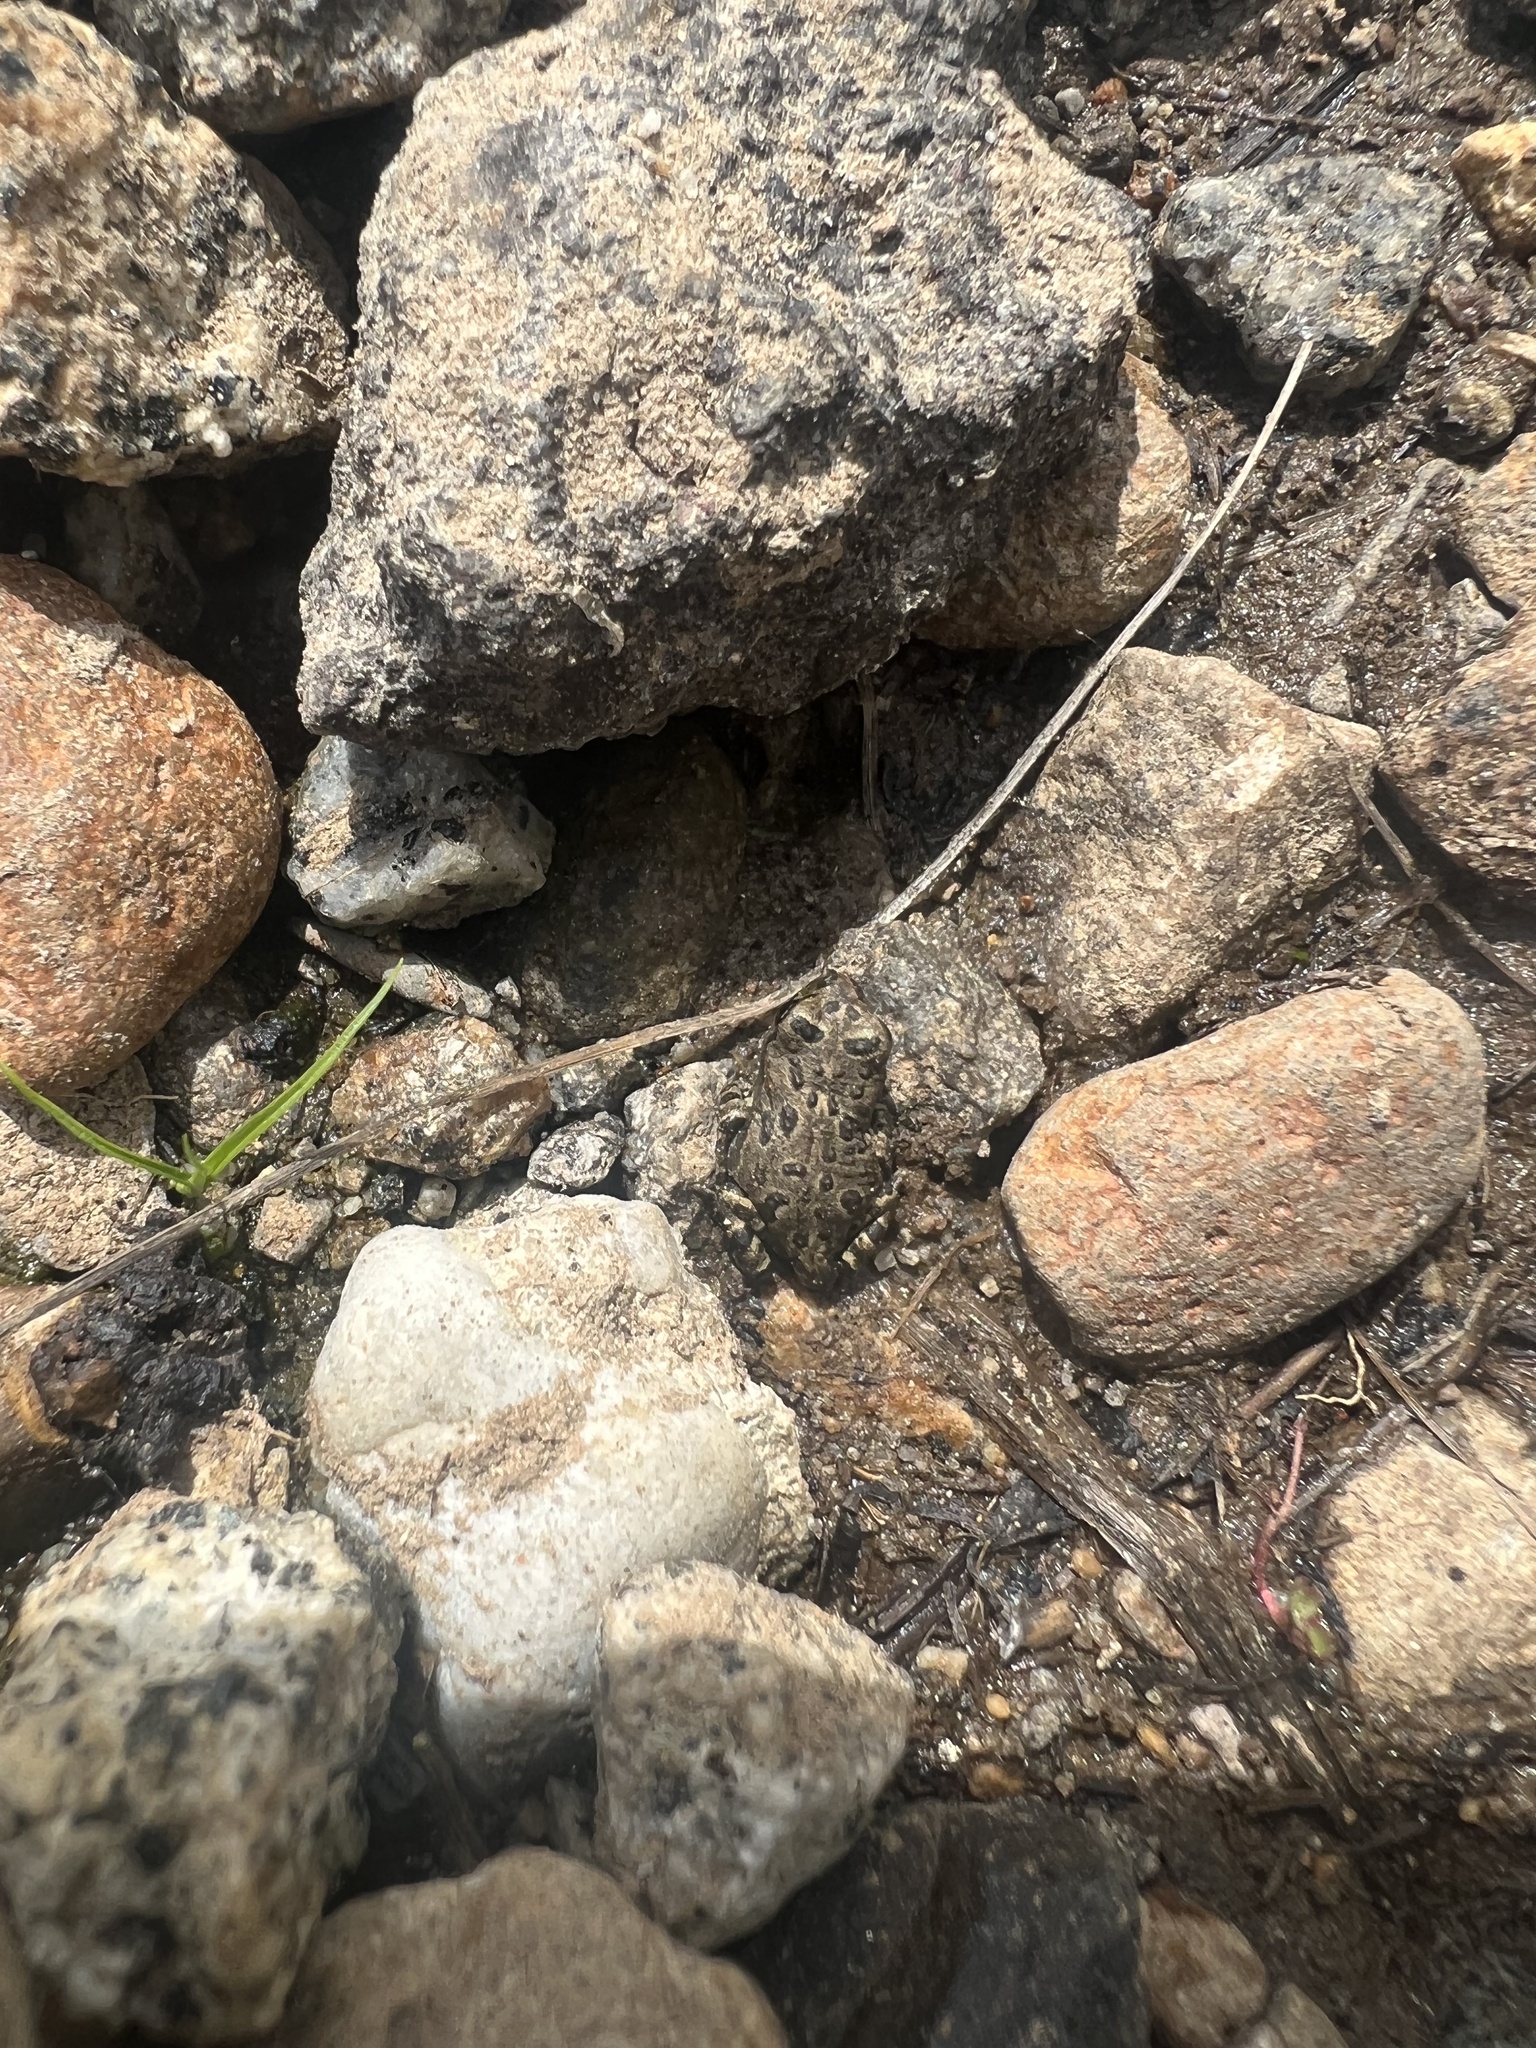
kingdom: Animalia
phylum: Chordata
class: Amphibia
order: Anura
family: Bufonidae
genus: Anaxyrus
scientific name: Anaxyrus boreas
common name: Western toad
